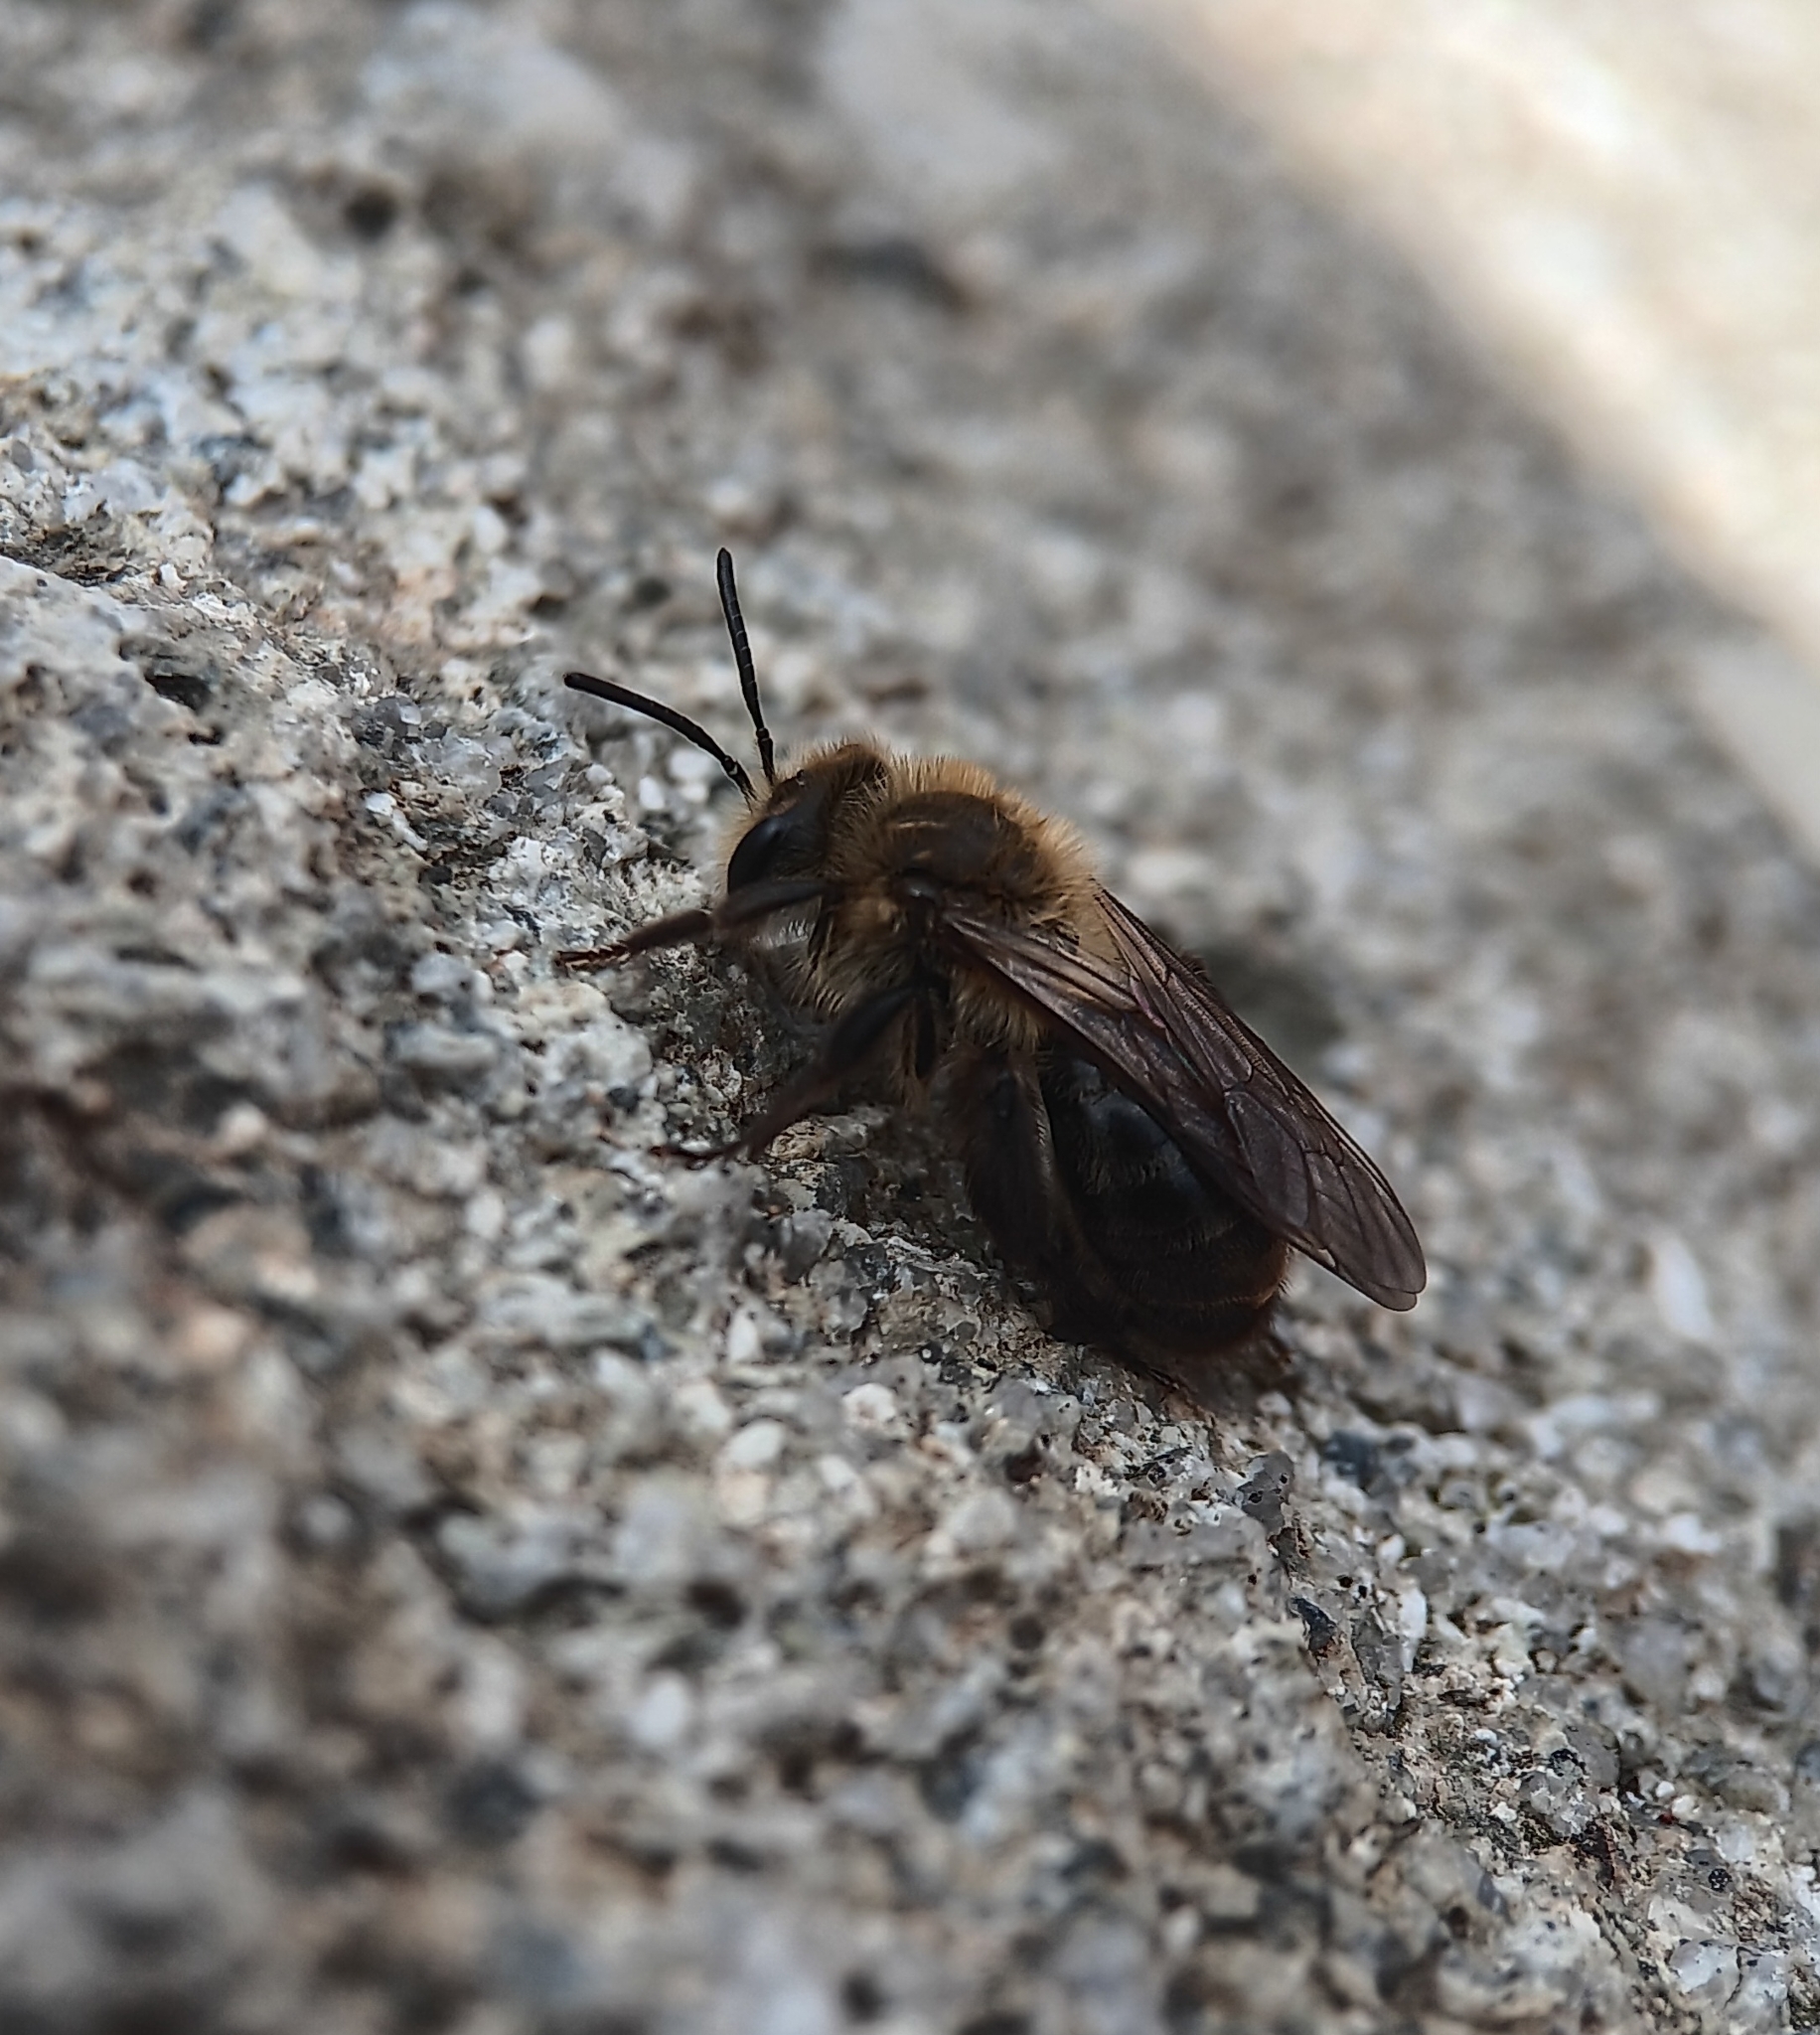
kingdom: Animalia
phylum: Arthropoda
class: Insecta
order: Hymenoptera
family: Andrenidae
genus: Andrena
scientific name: Andrena vicina
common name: Neighborly mining bee
